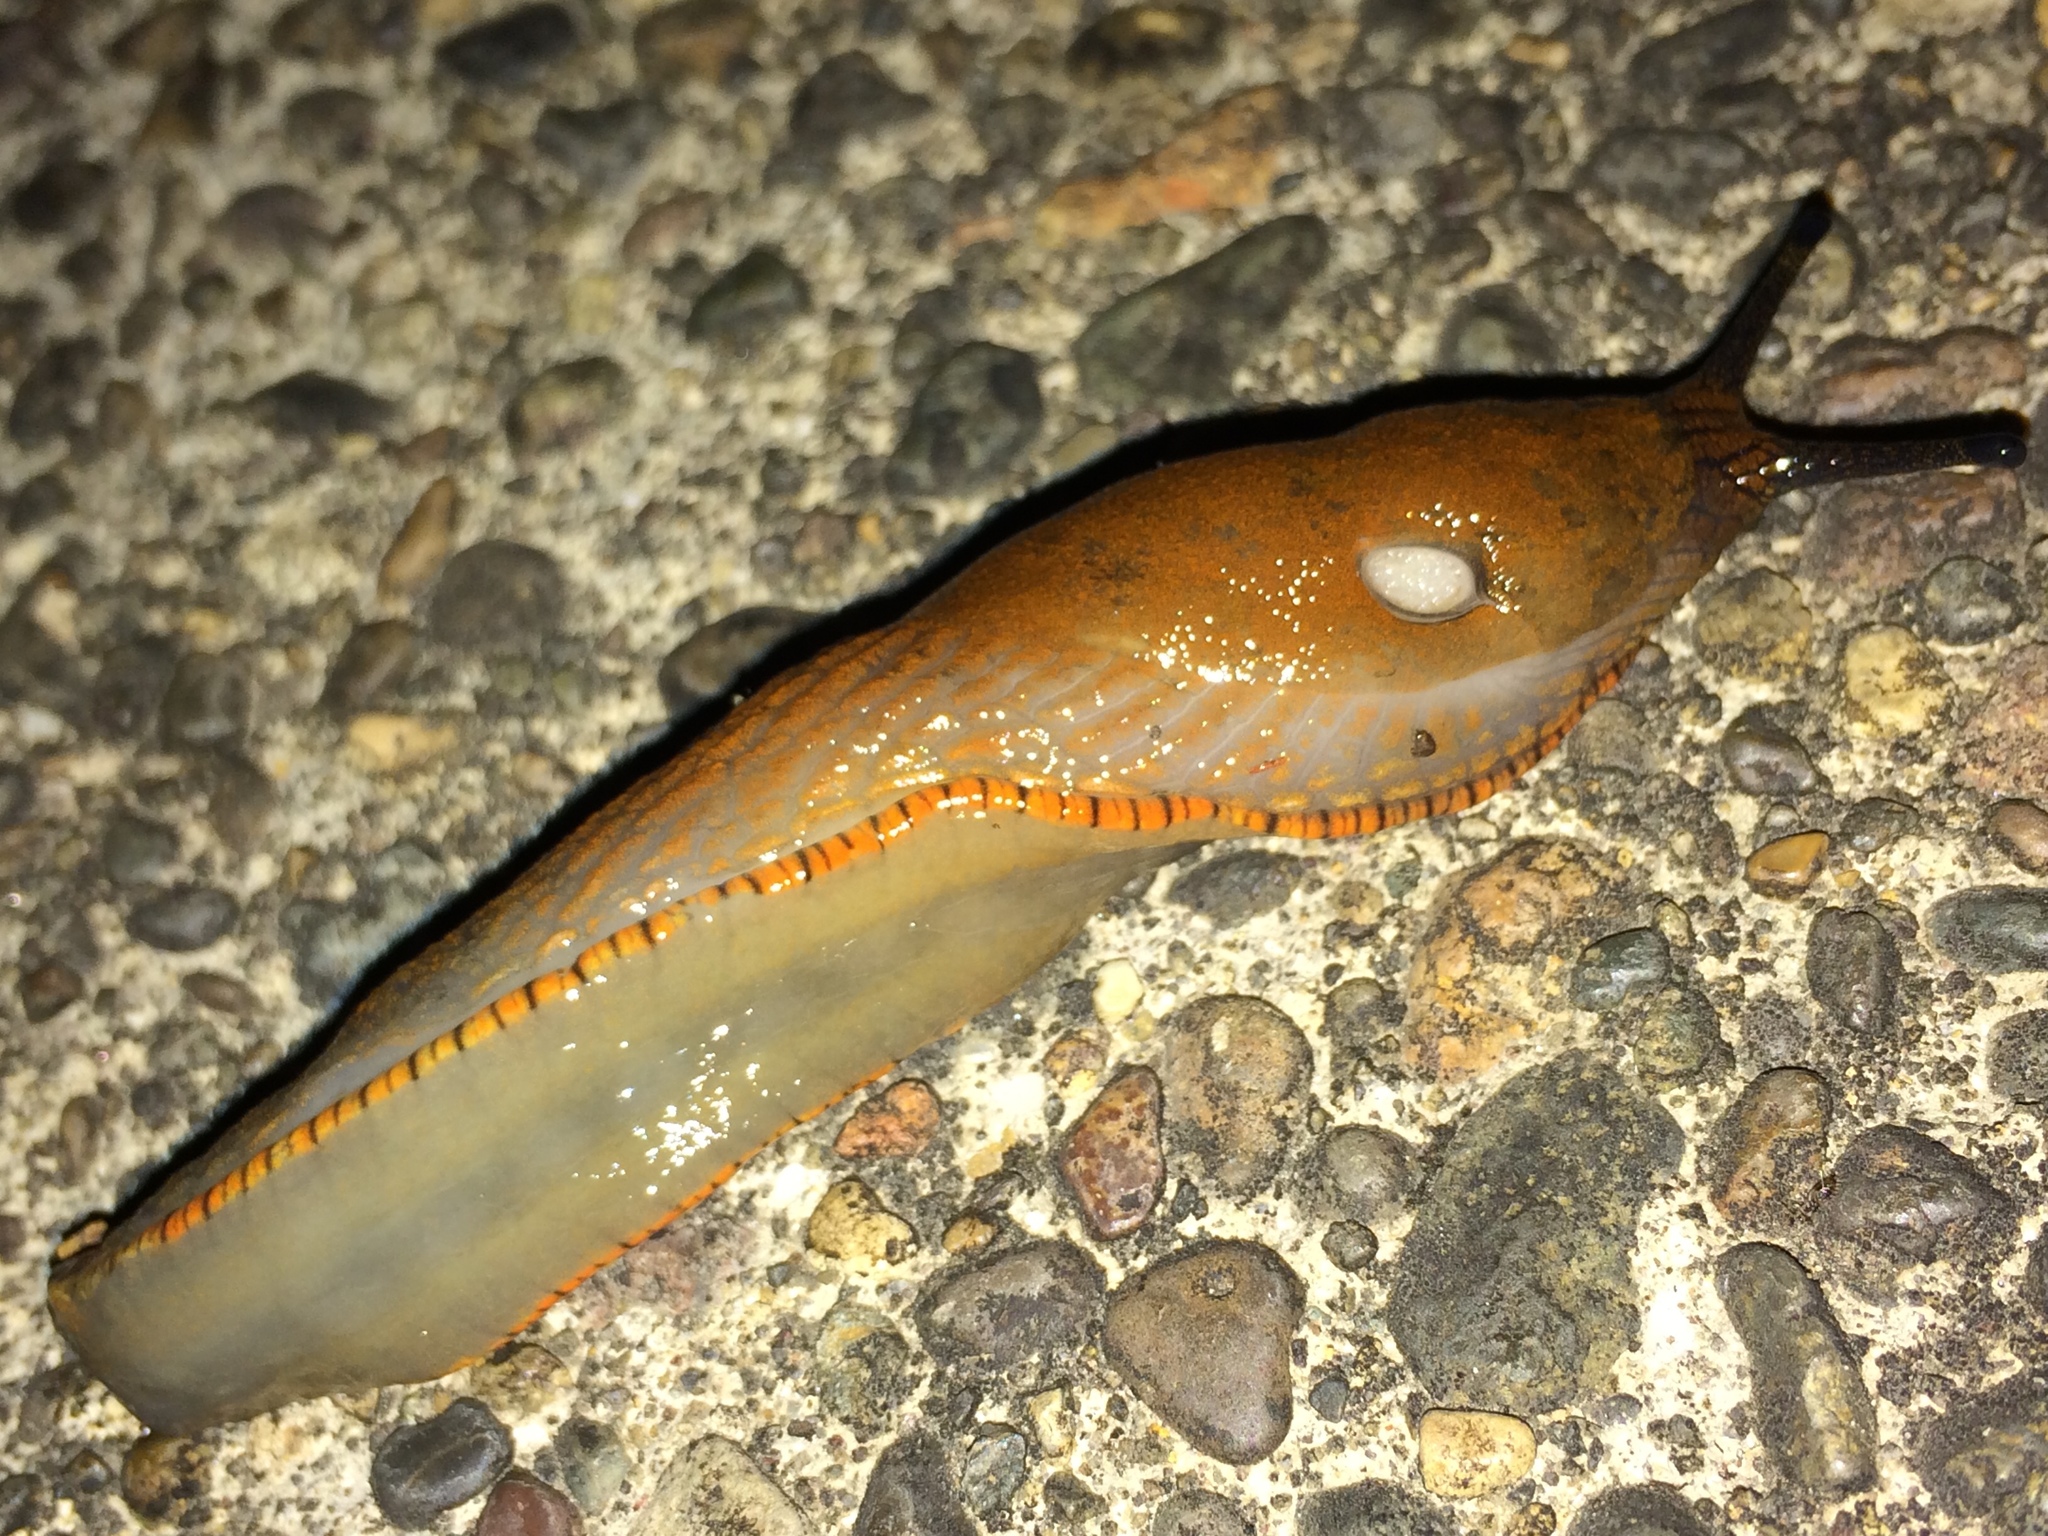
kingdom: Animalia
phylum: Mollusca
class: Gastropoda
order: Stylommatophora
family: Arionidae
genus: Arion
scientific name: Arion rufus
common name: Chocolate arion
